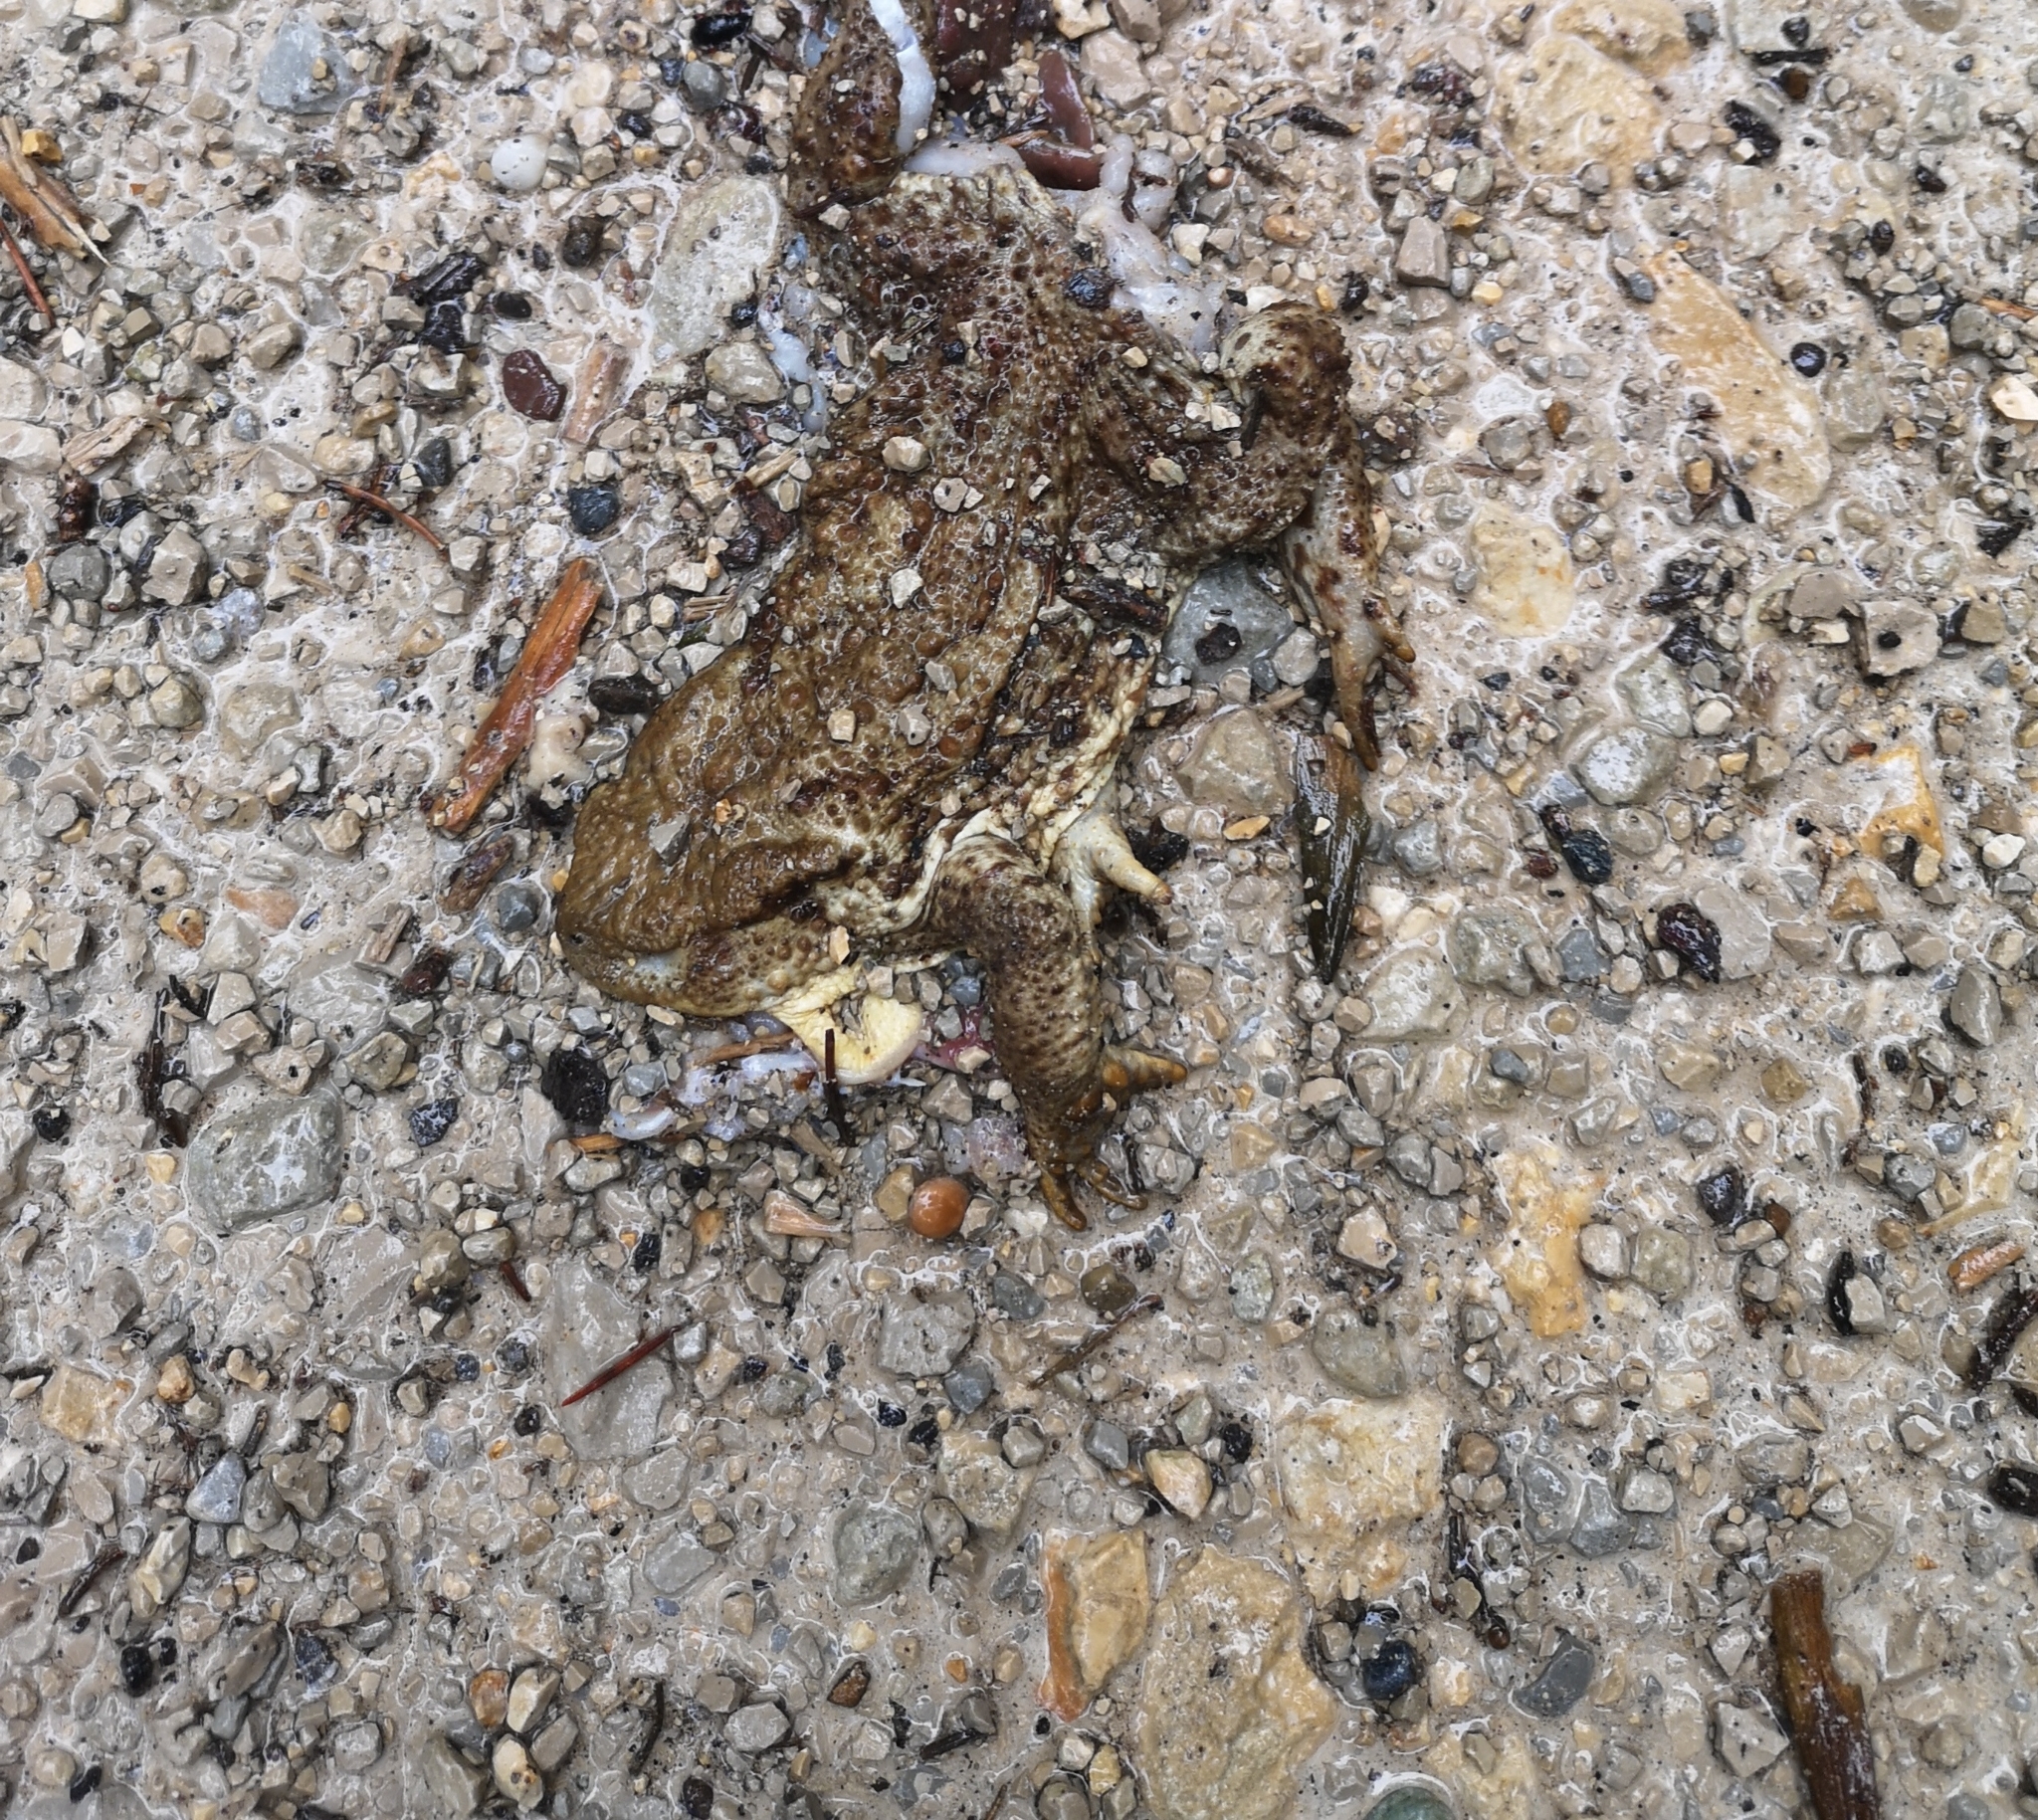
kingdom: Animalia
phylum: Chordata
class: Amphibia
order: Anura
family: Bufonidae
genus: Bufo
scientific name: Bufo bufo
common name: Common toad
